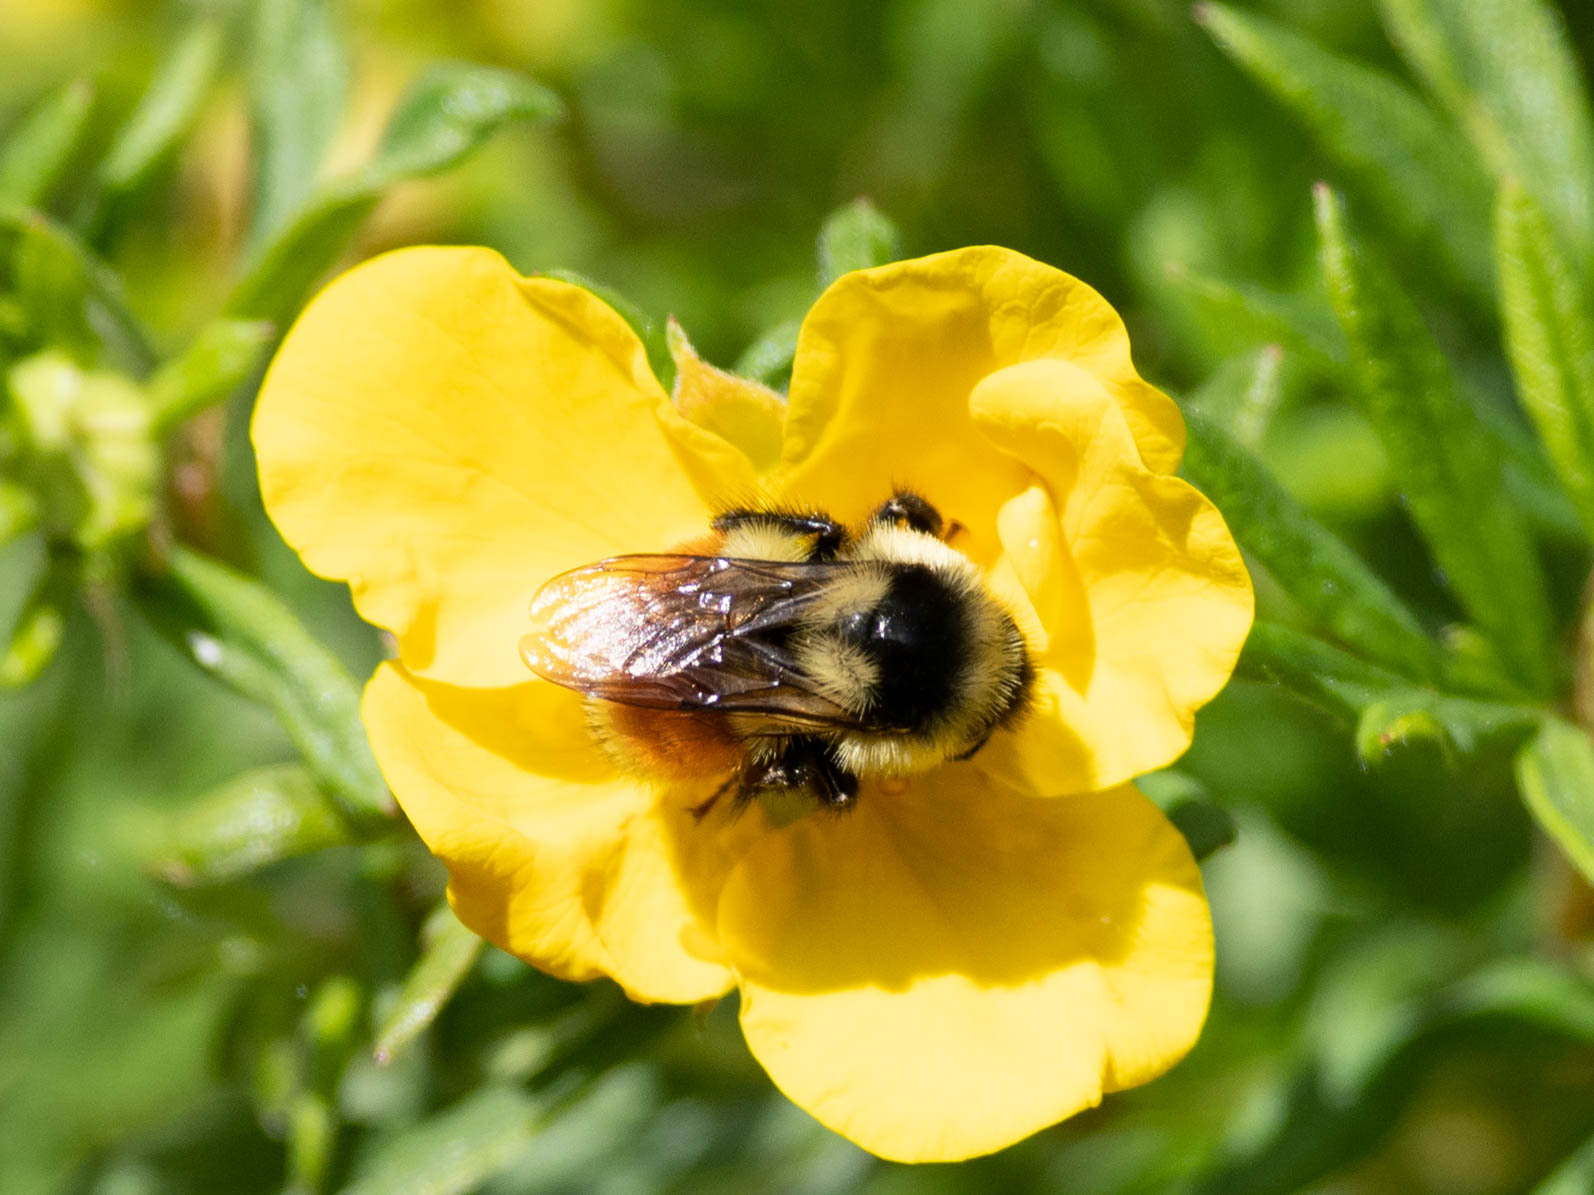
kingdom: Animalia
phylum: Arthropoda
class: Insecta
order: Hymenoptera
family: Apidae
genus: Bombus
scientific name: Bombus ternarius
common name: Tri-colored bumble bee
